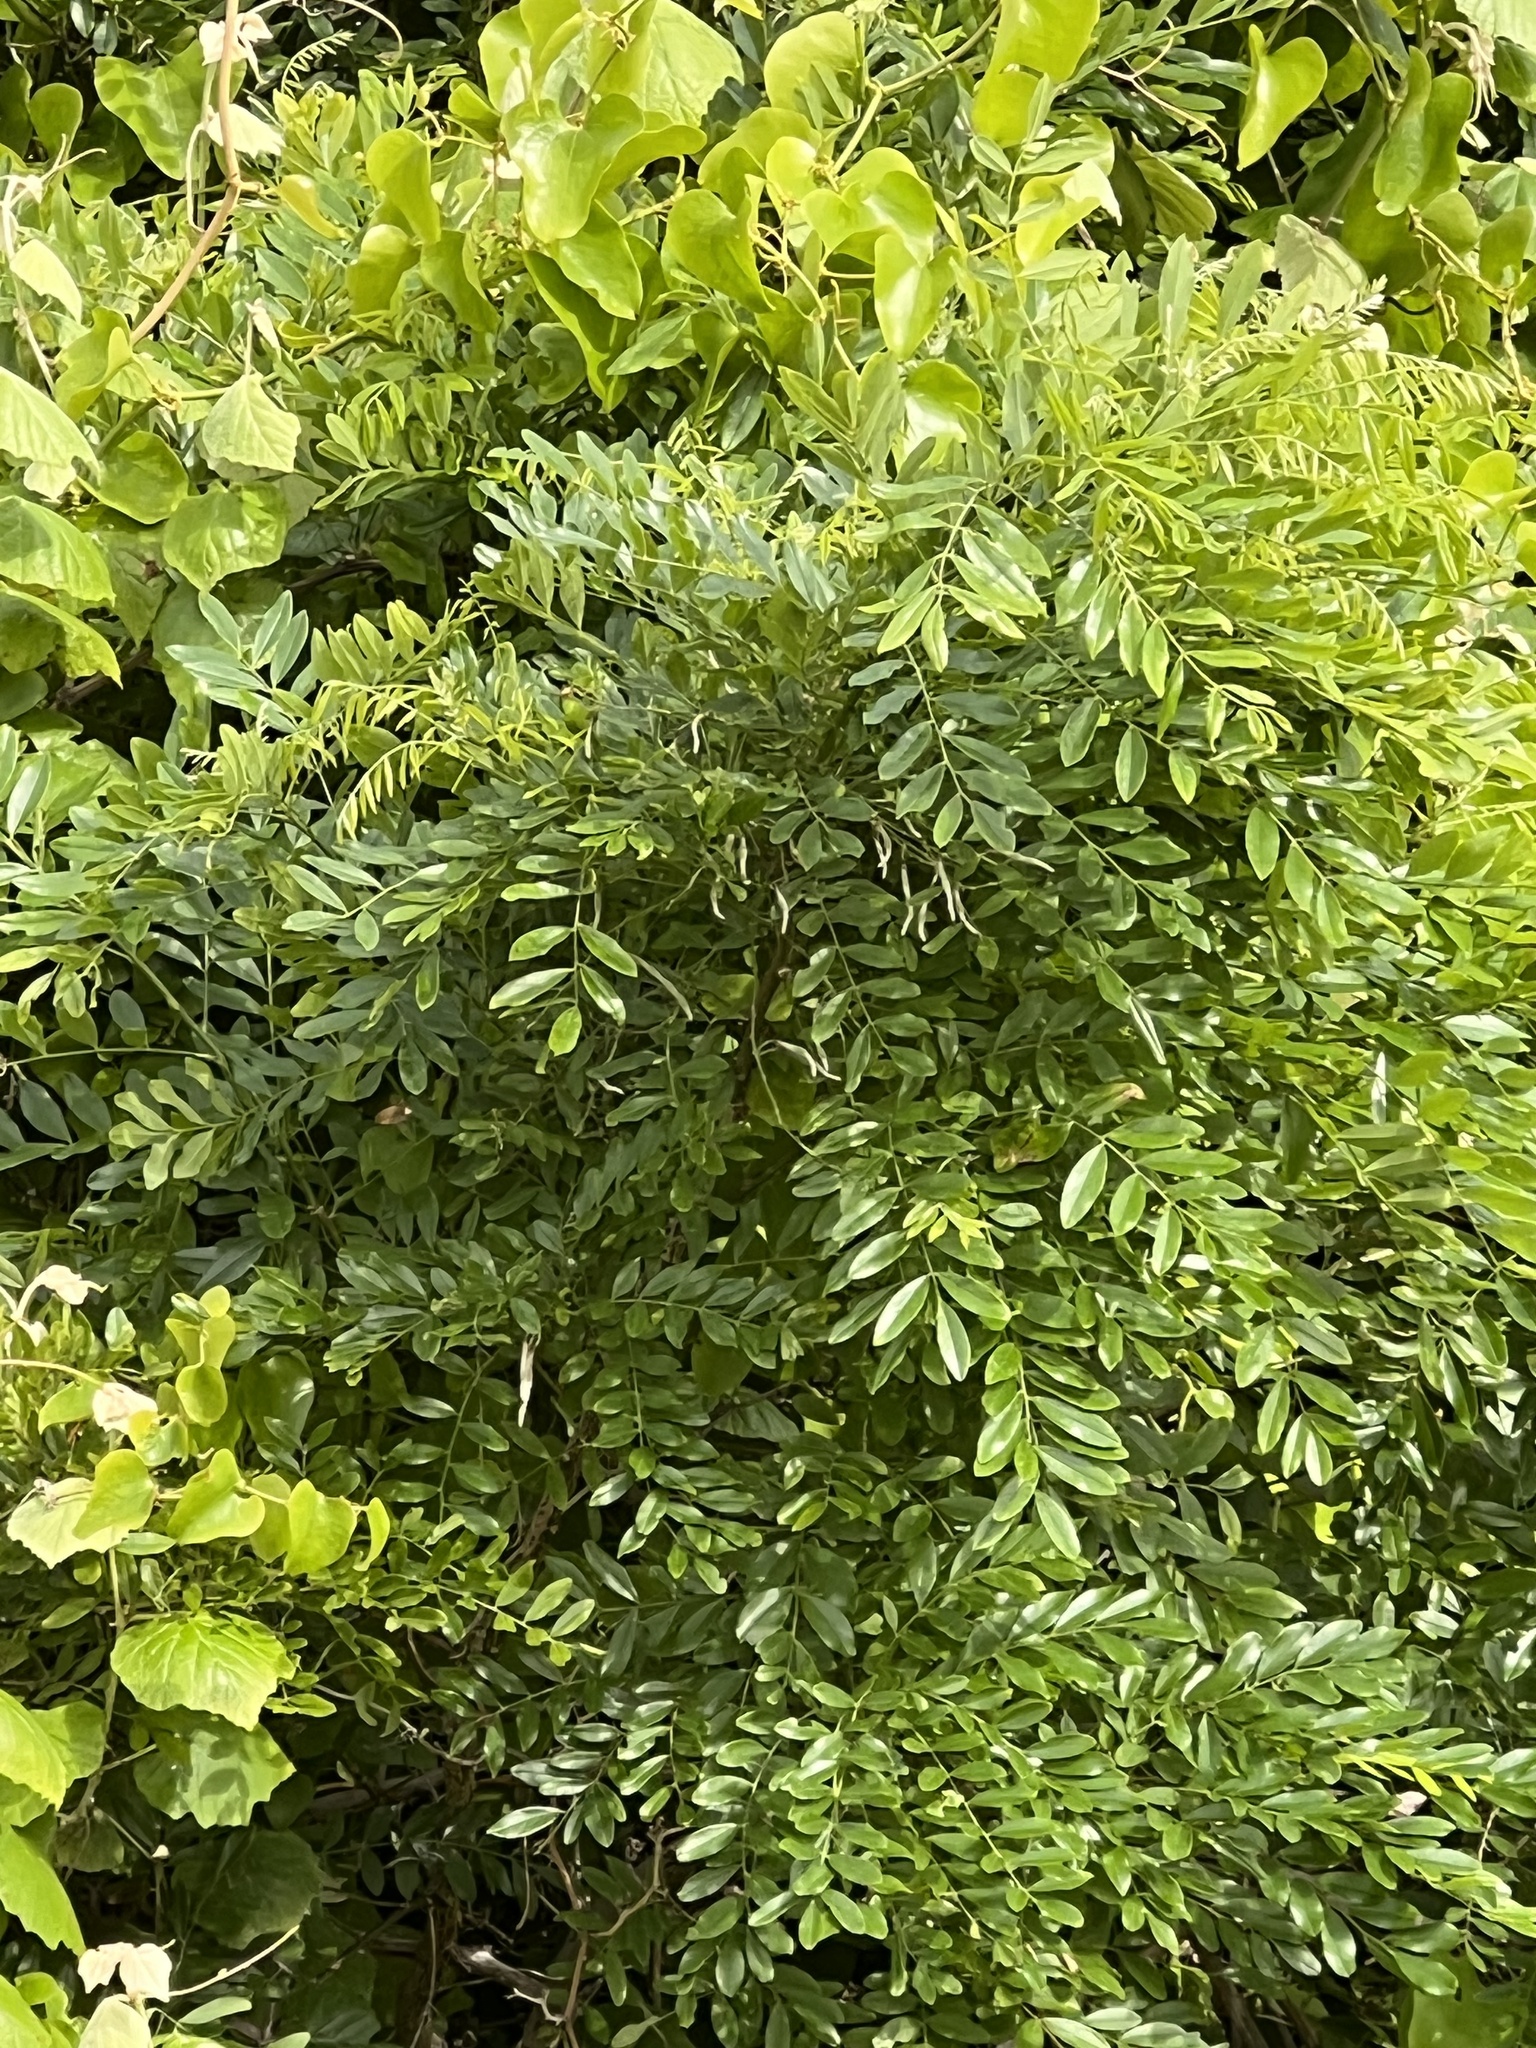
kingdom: Plantae
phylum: Tracheophyta
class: Magnoliopsida
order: Fabales
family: Fabaceae
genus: Styphnolobium
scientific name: Styphnolobium affine
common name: Texas sophora
